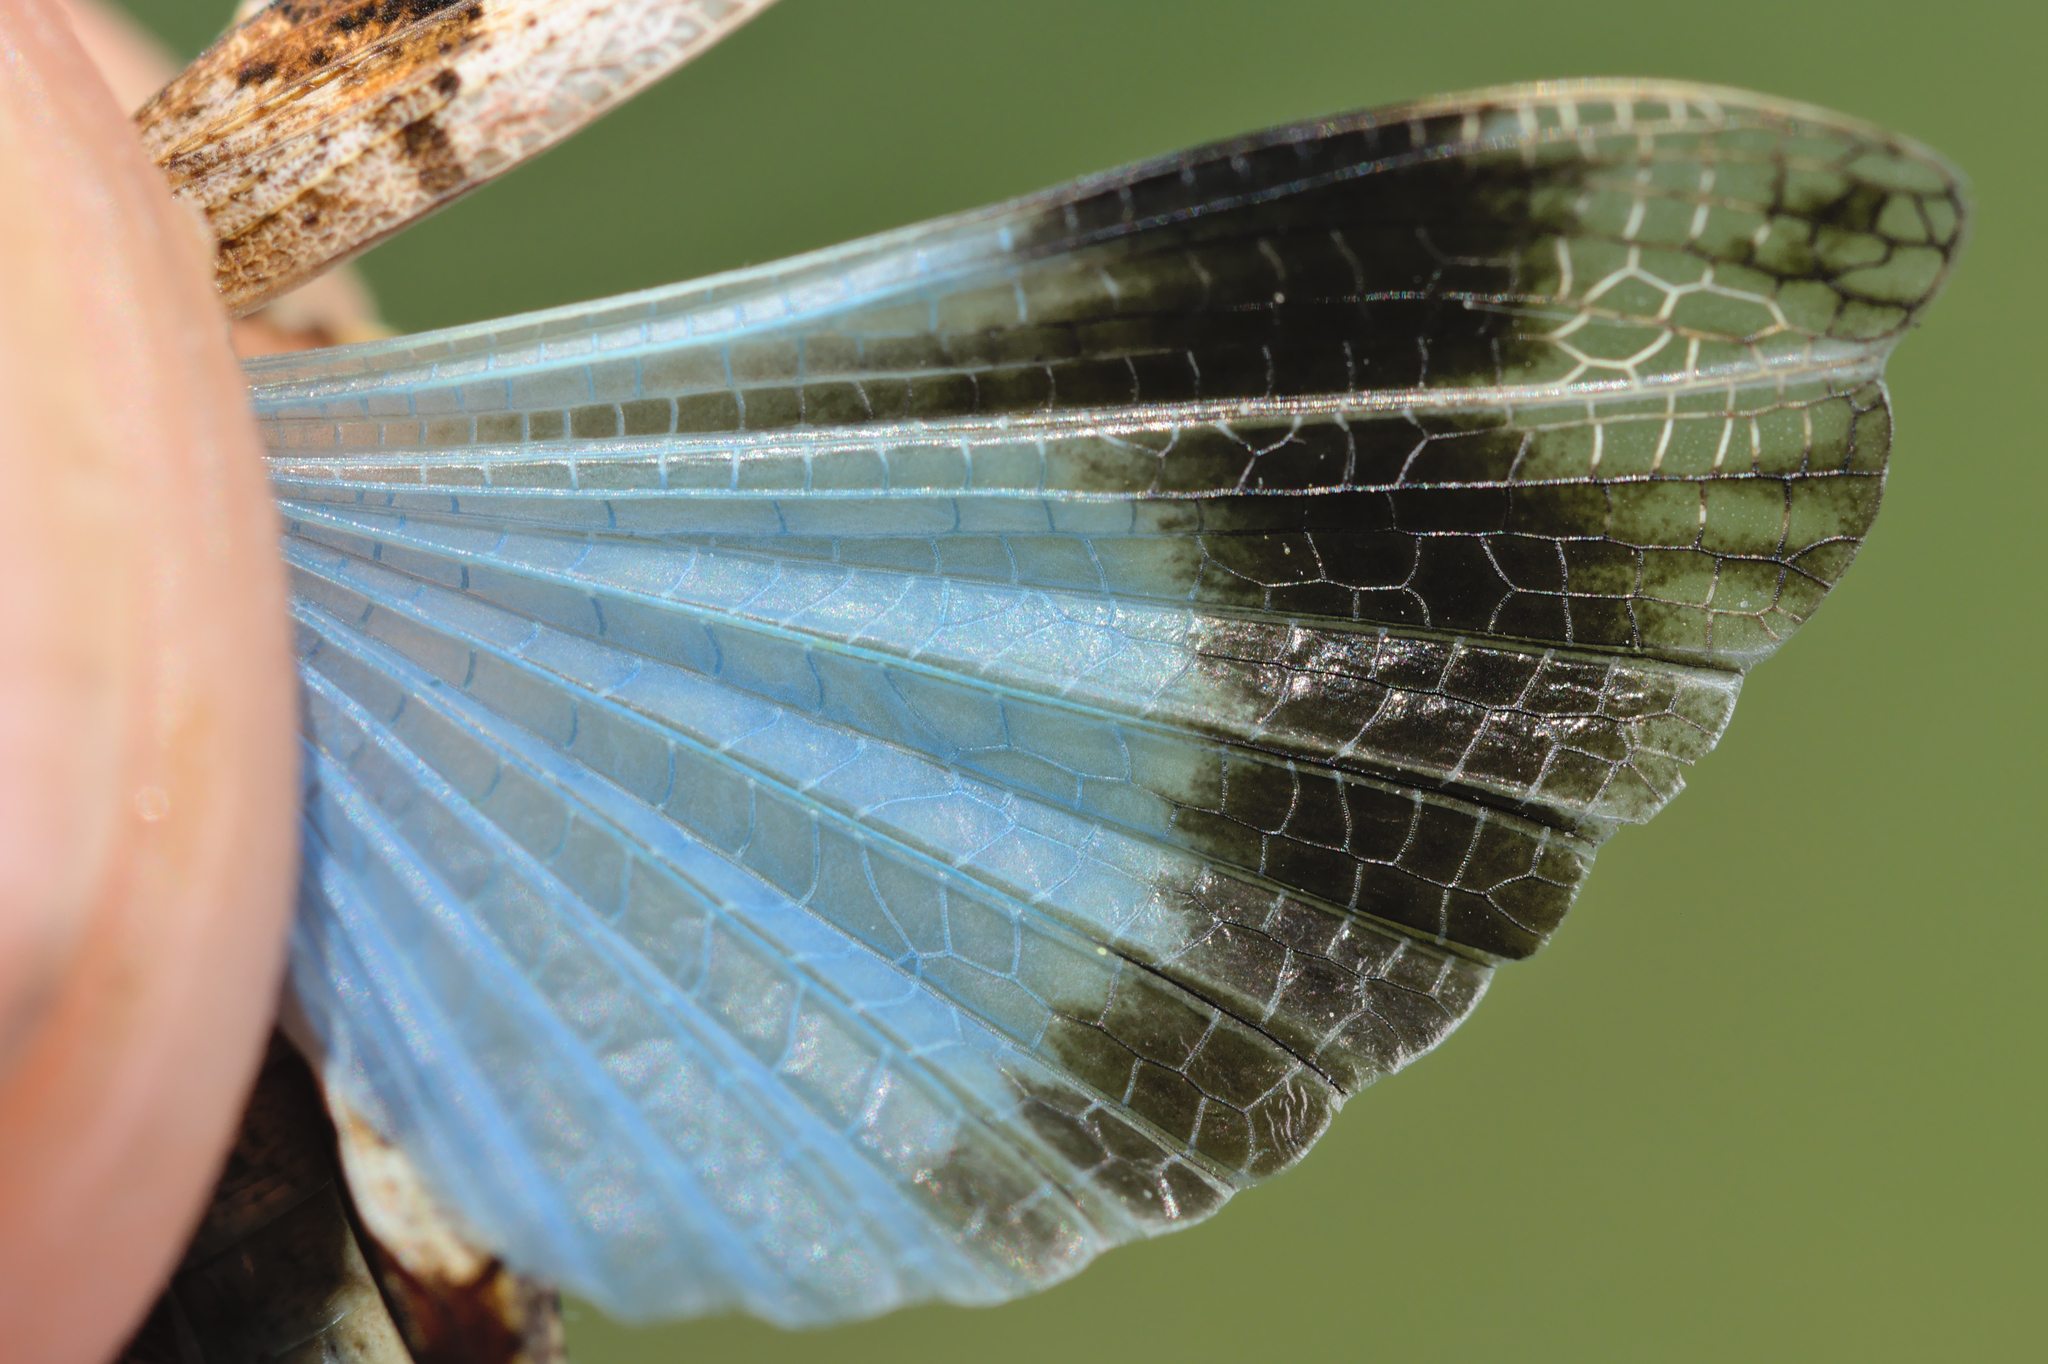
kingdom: Animalia
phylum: Arthropoda
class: Insecta
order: Orthoptera
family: Acrididae
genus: Oedipoda
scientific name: Oedipoda caerulescens
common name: Blue-winged grasshopper
